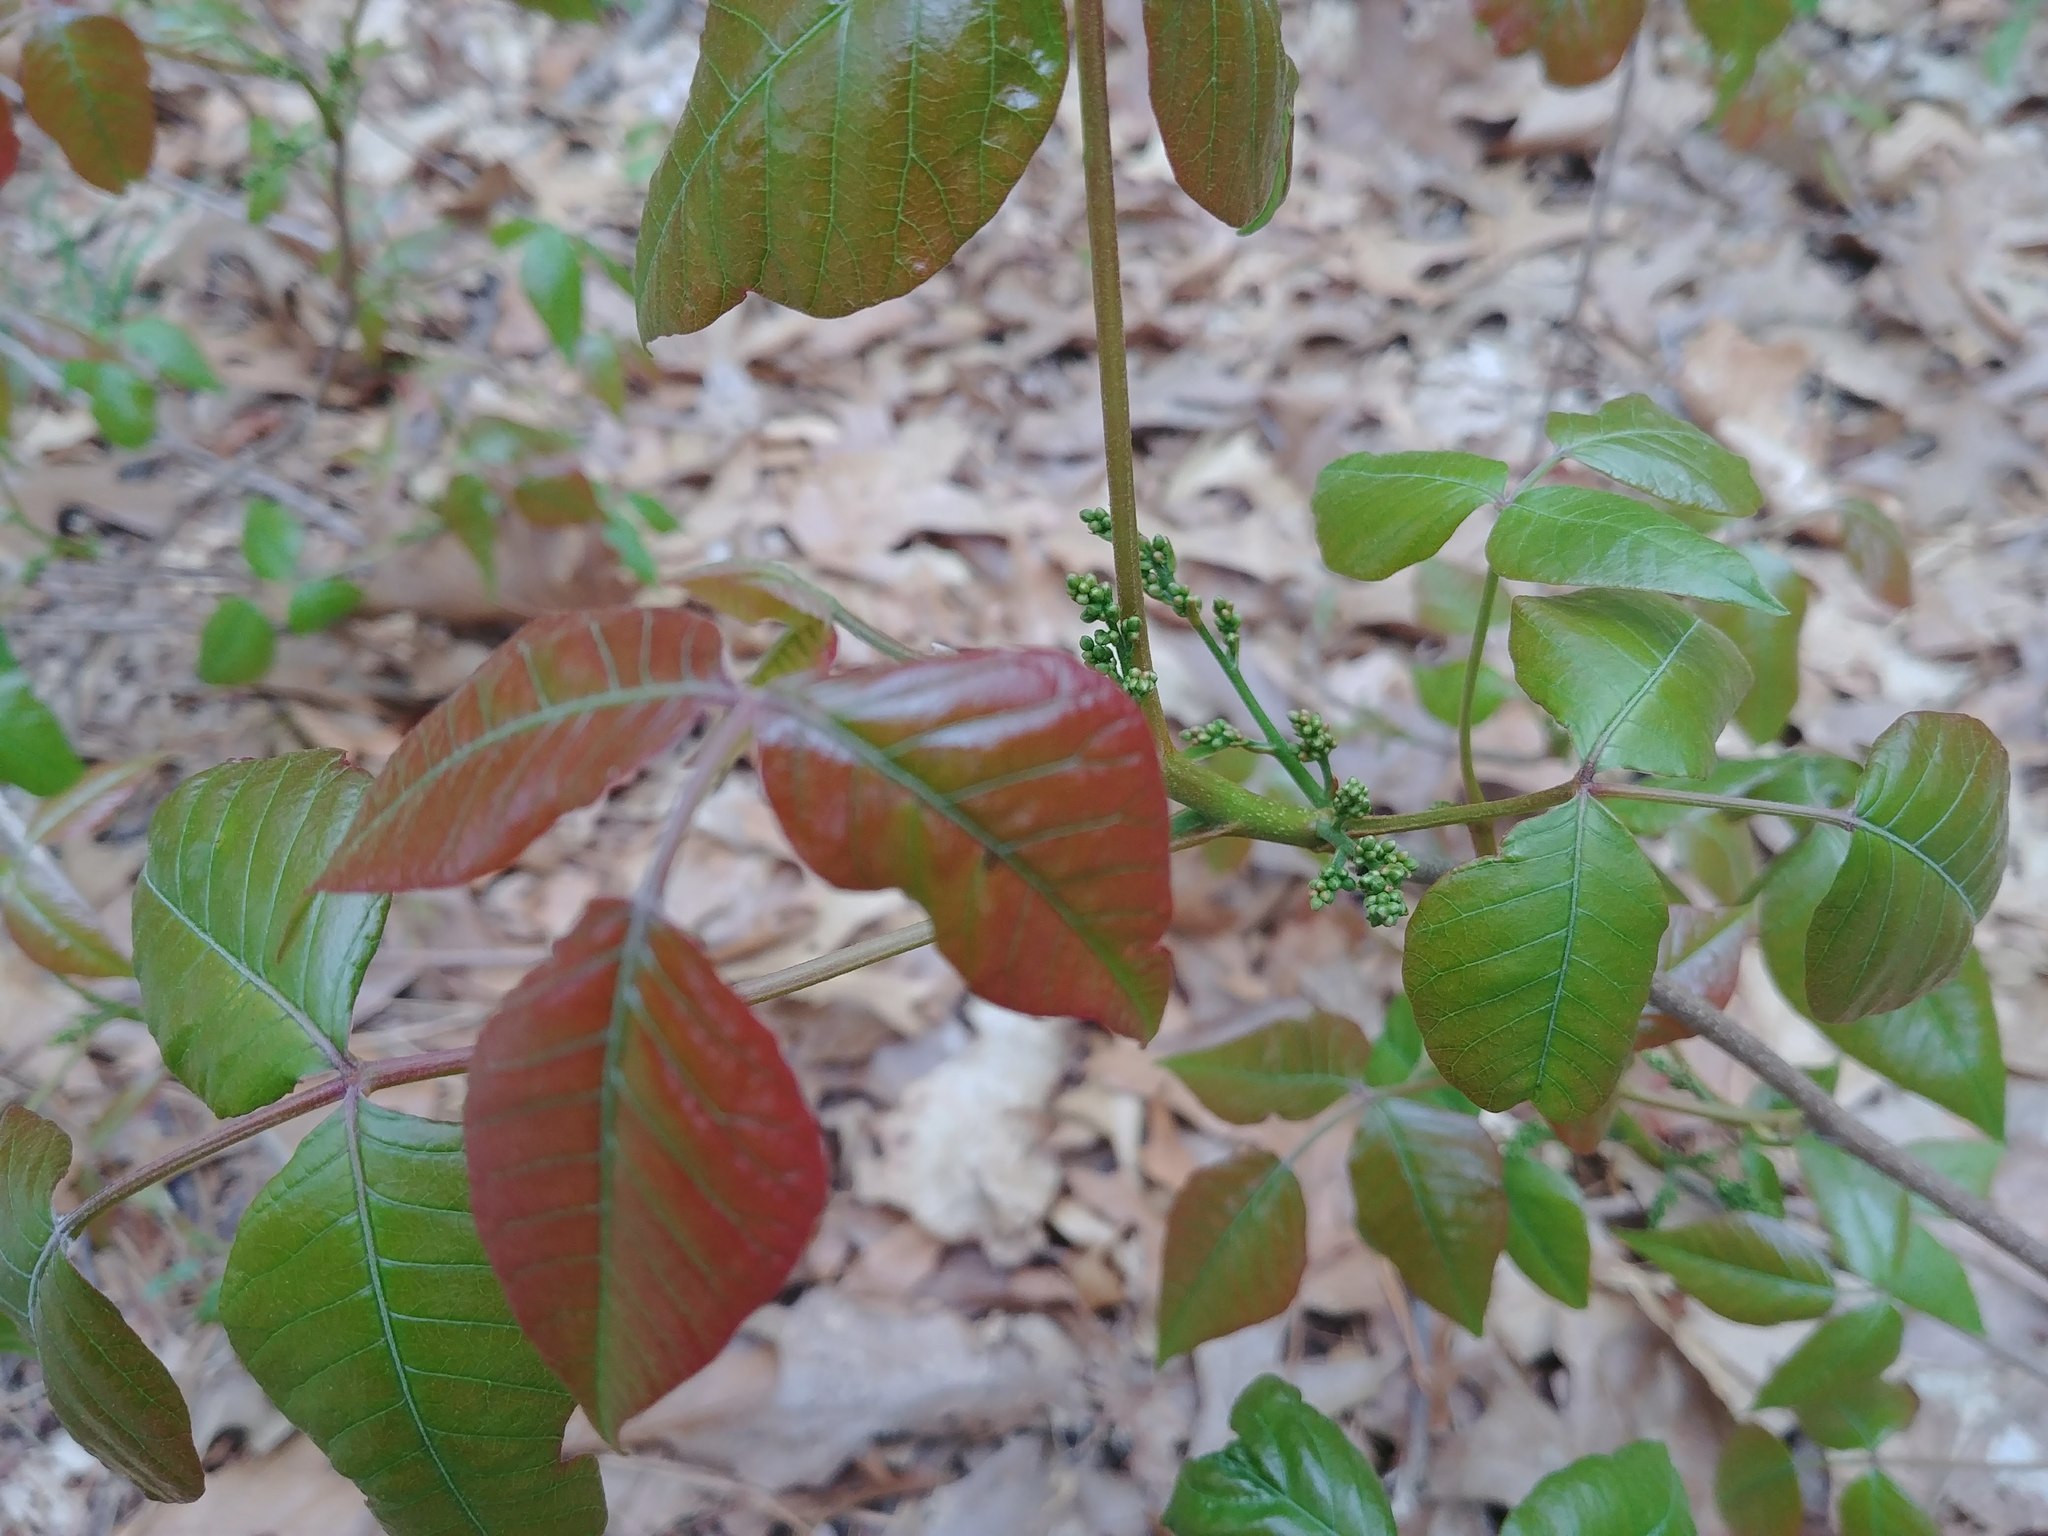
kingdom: Plantae
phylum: Tracheophyta
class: Magnoliopsida
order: Sapindales
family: Anacardiaceae
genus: Toxicodendron
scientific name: Toxicodendron radicans
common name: Poison ivy
